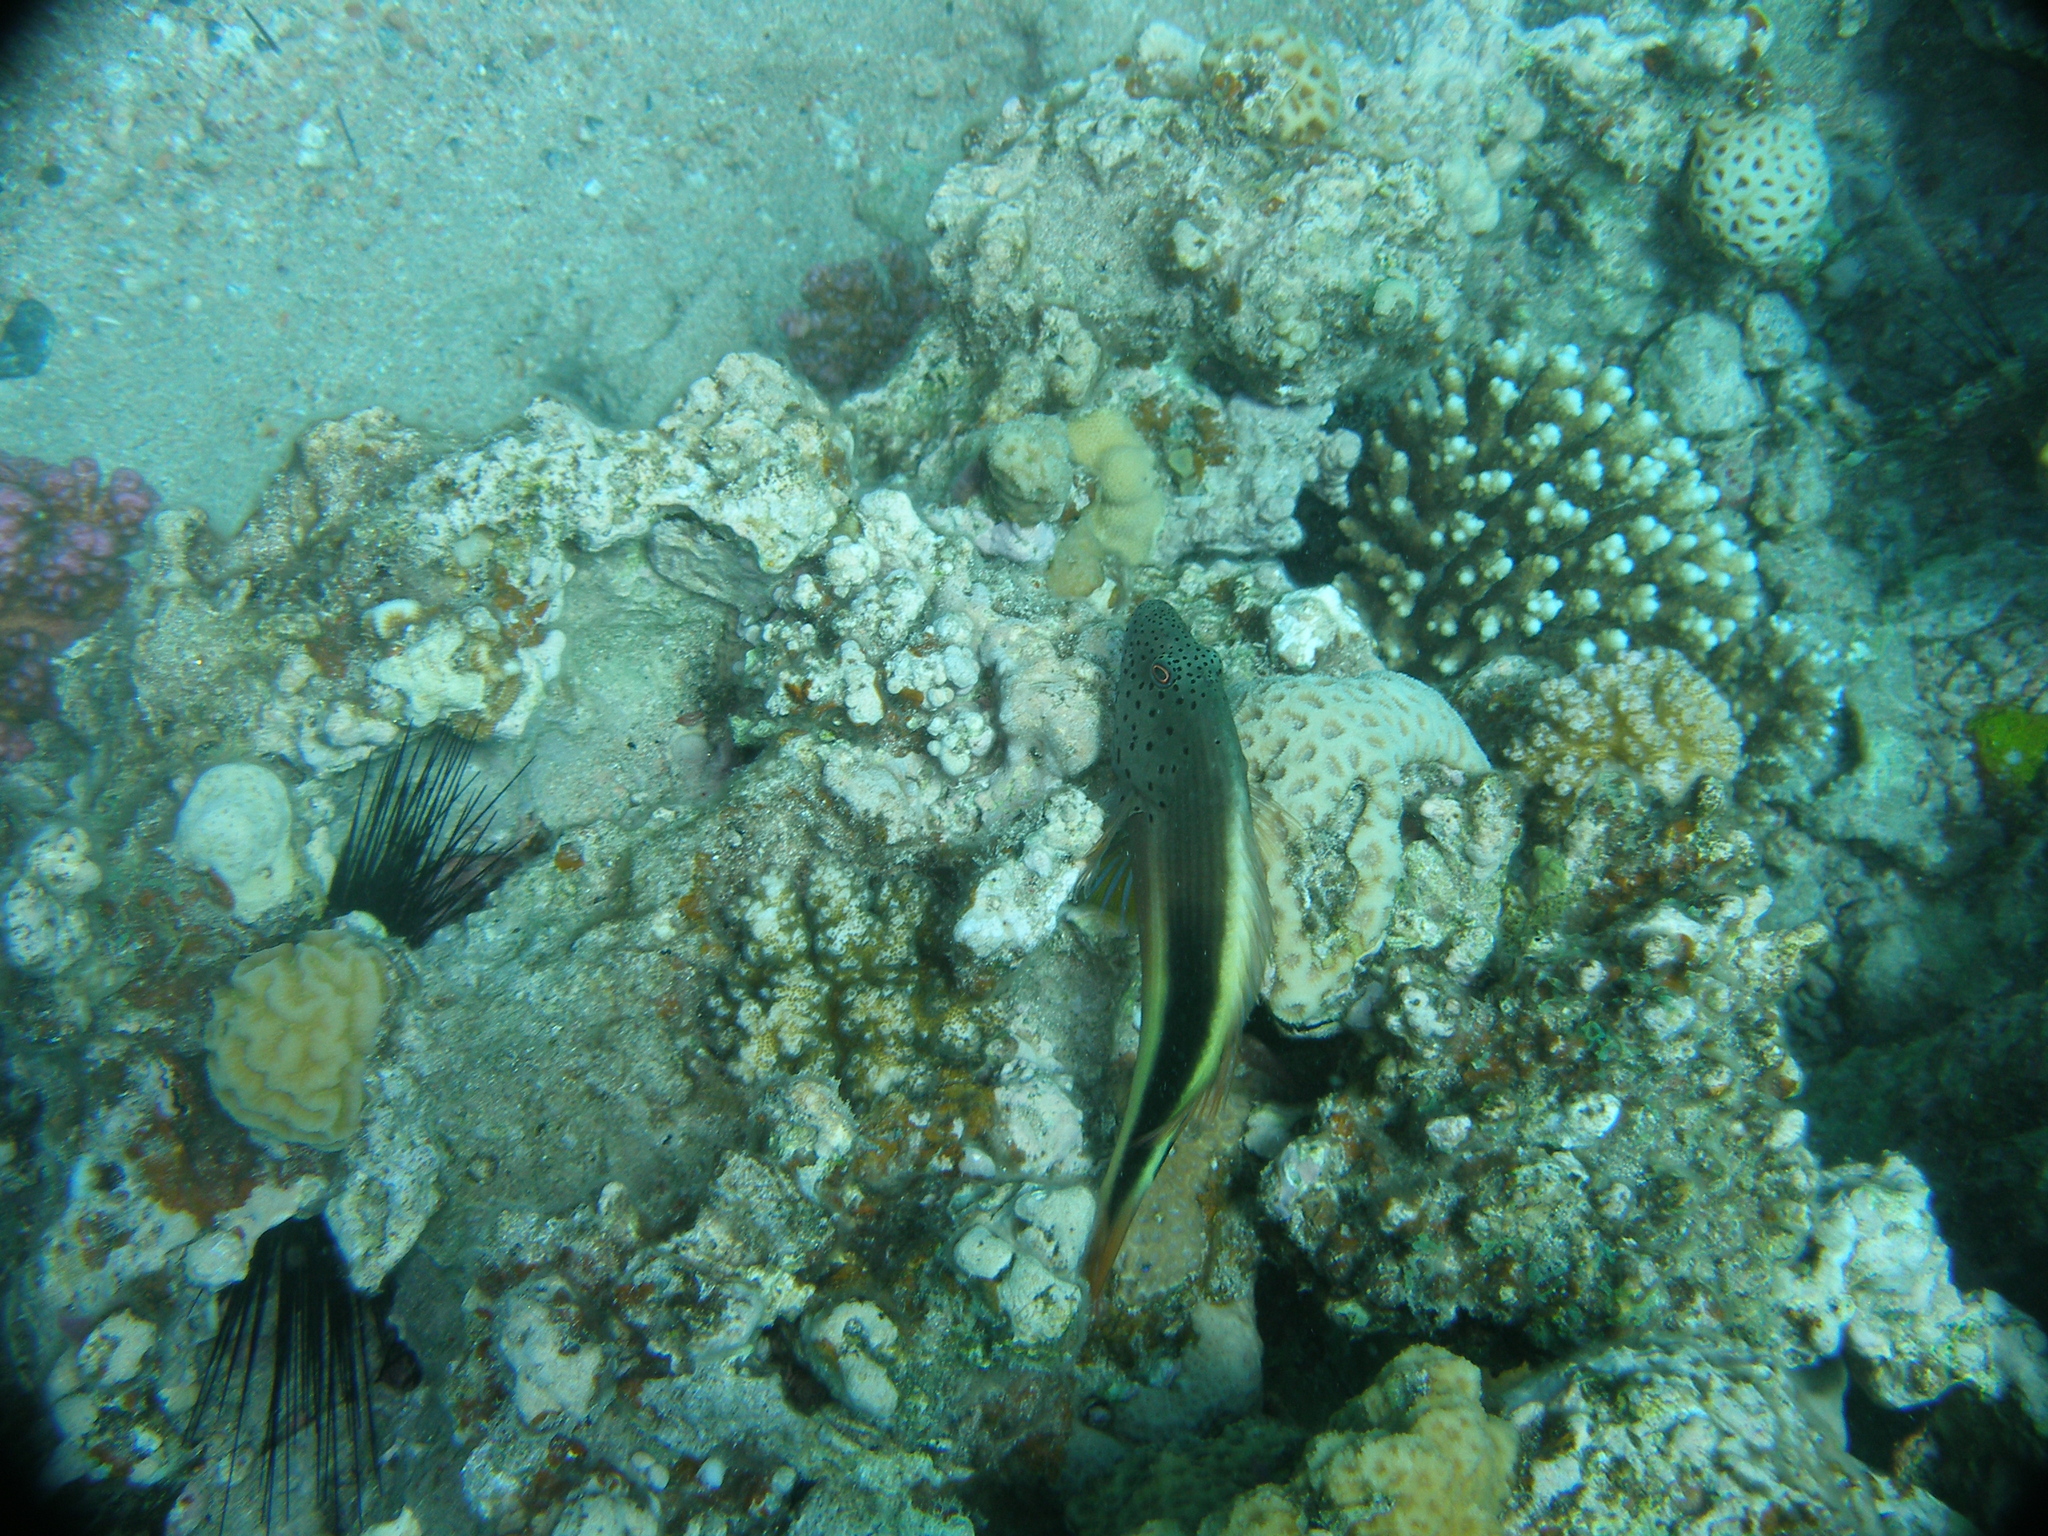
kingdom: Animalia
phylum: Chordata
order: Perciformes
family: Cirrhitidae
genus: Paracirrhites
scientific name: Paracirrhites forsteri
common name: Freckled hawkfish
